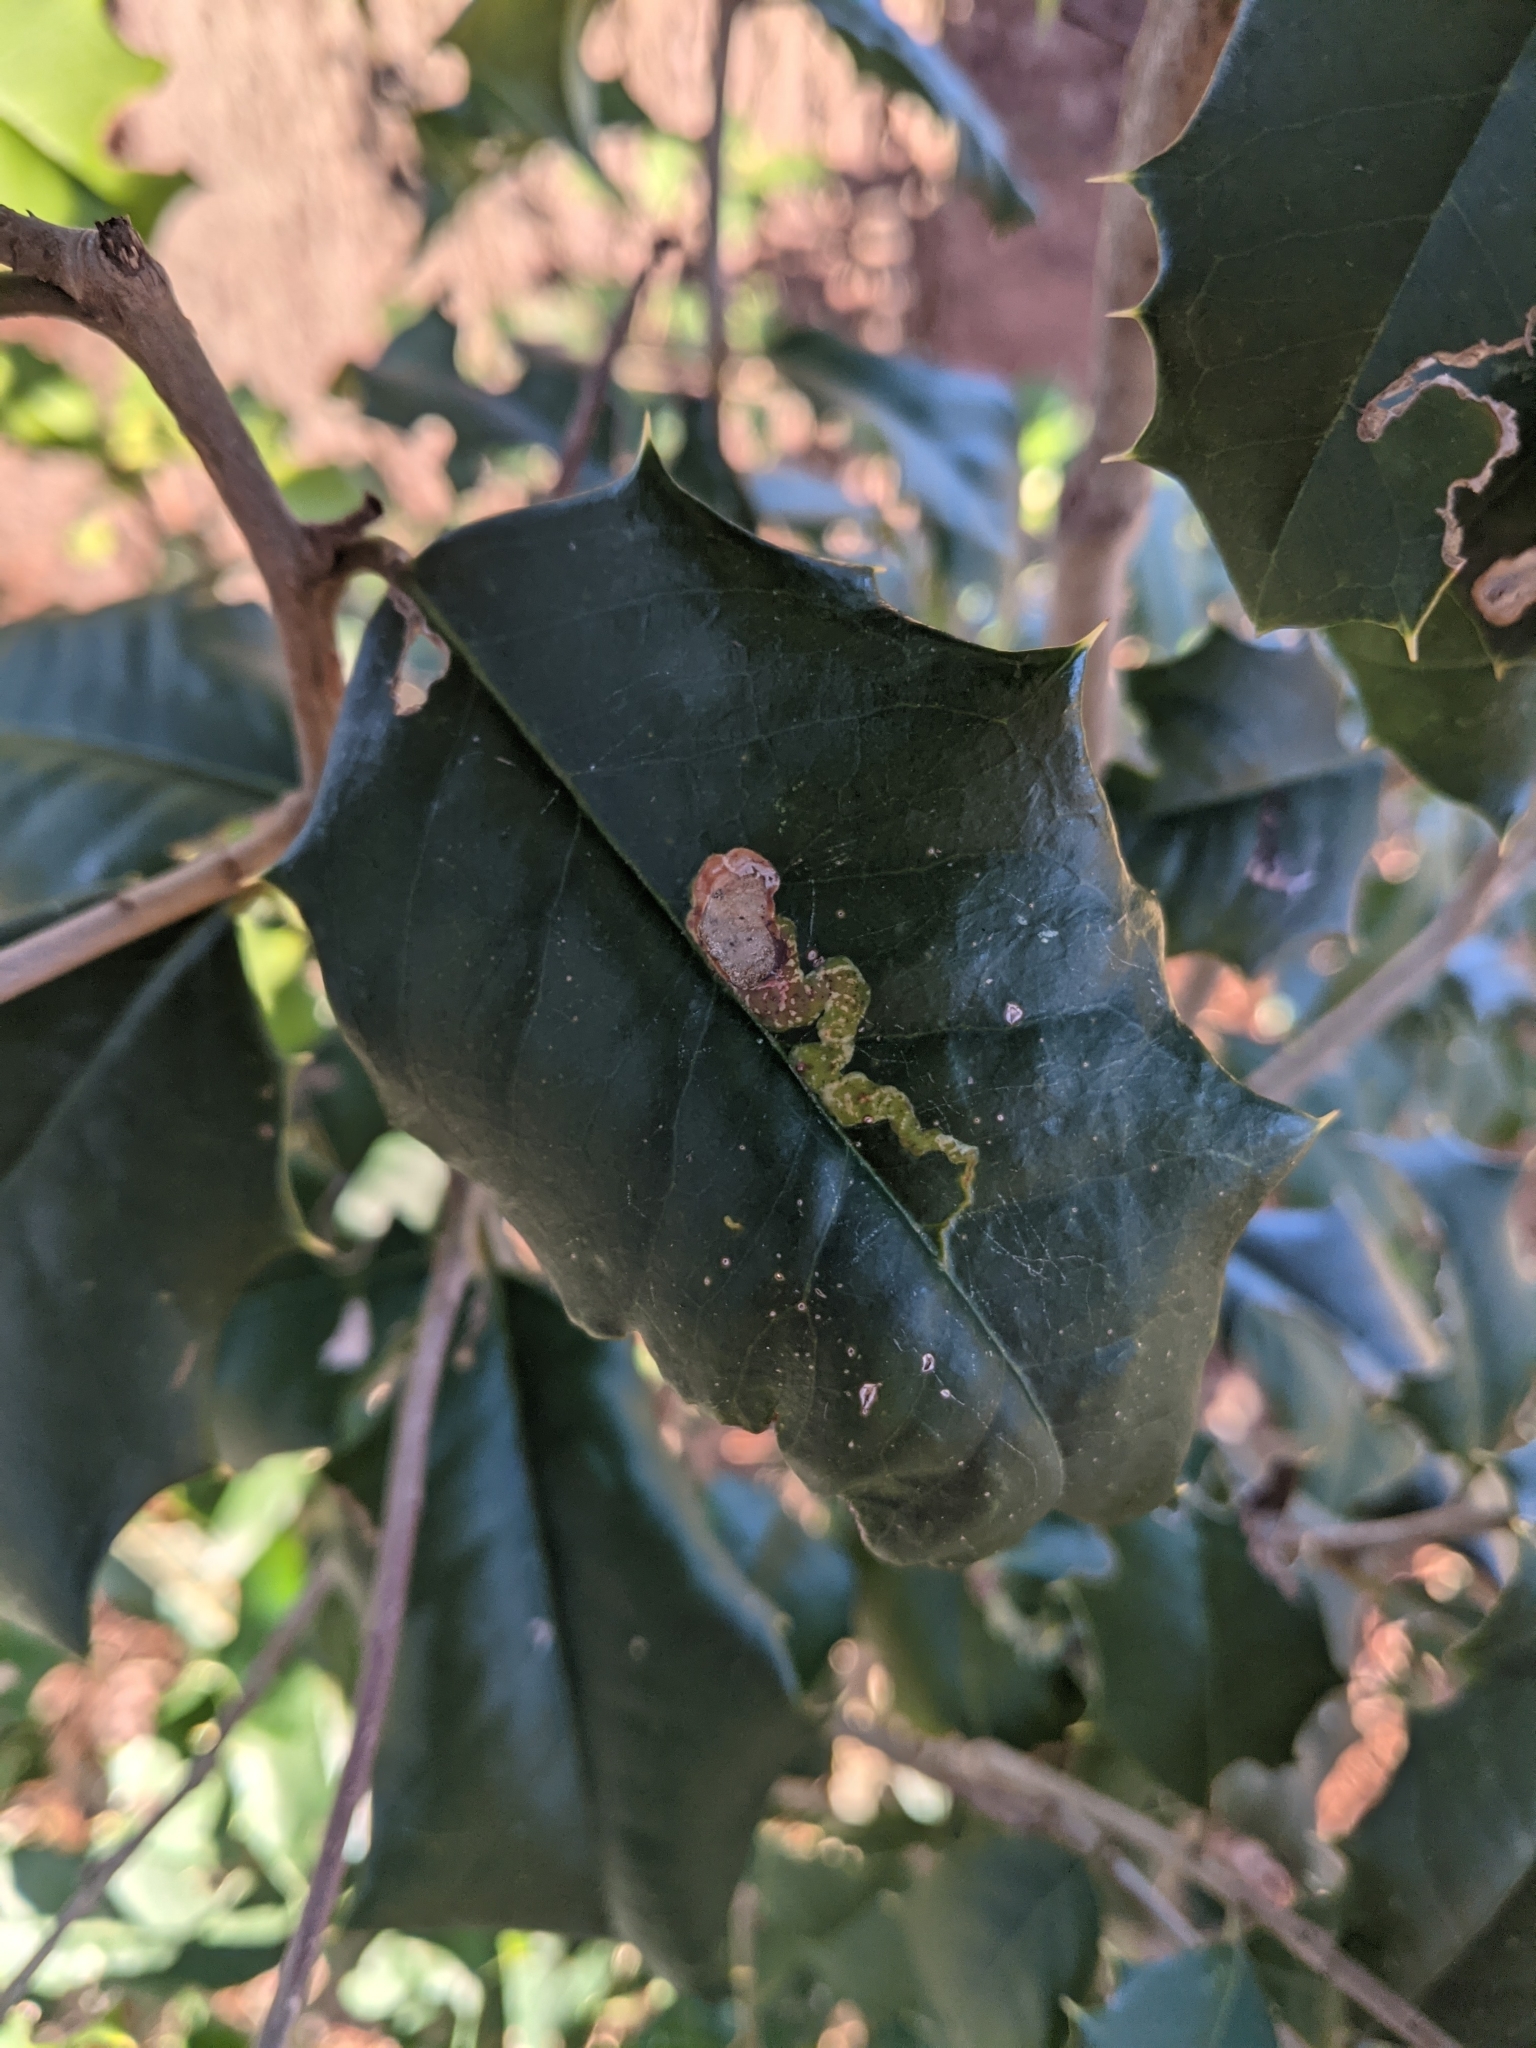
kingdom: Animalia
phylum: Arthropoda
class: Insecta
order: Diptera
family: Agromyzidae
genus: Phytomyza
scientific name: Phytomyza ilicicola
